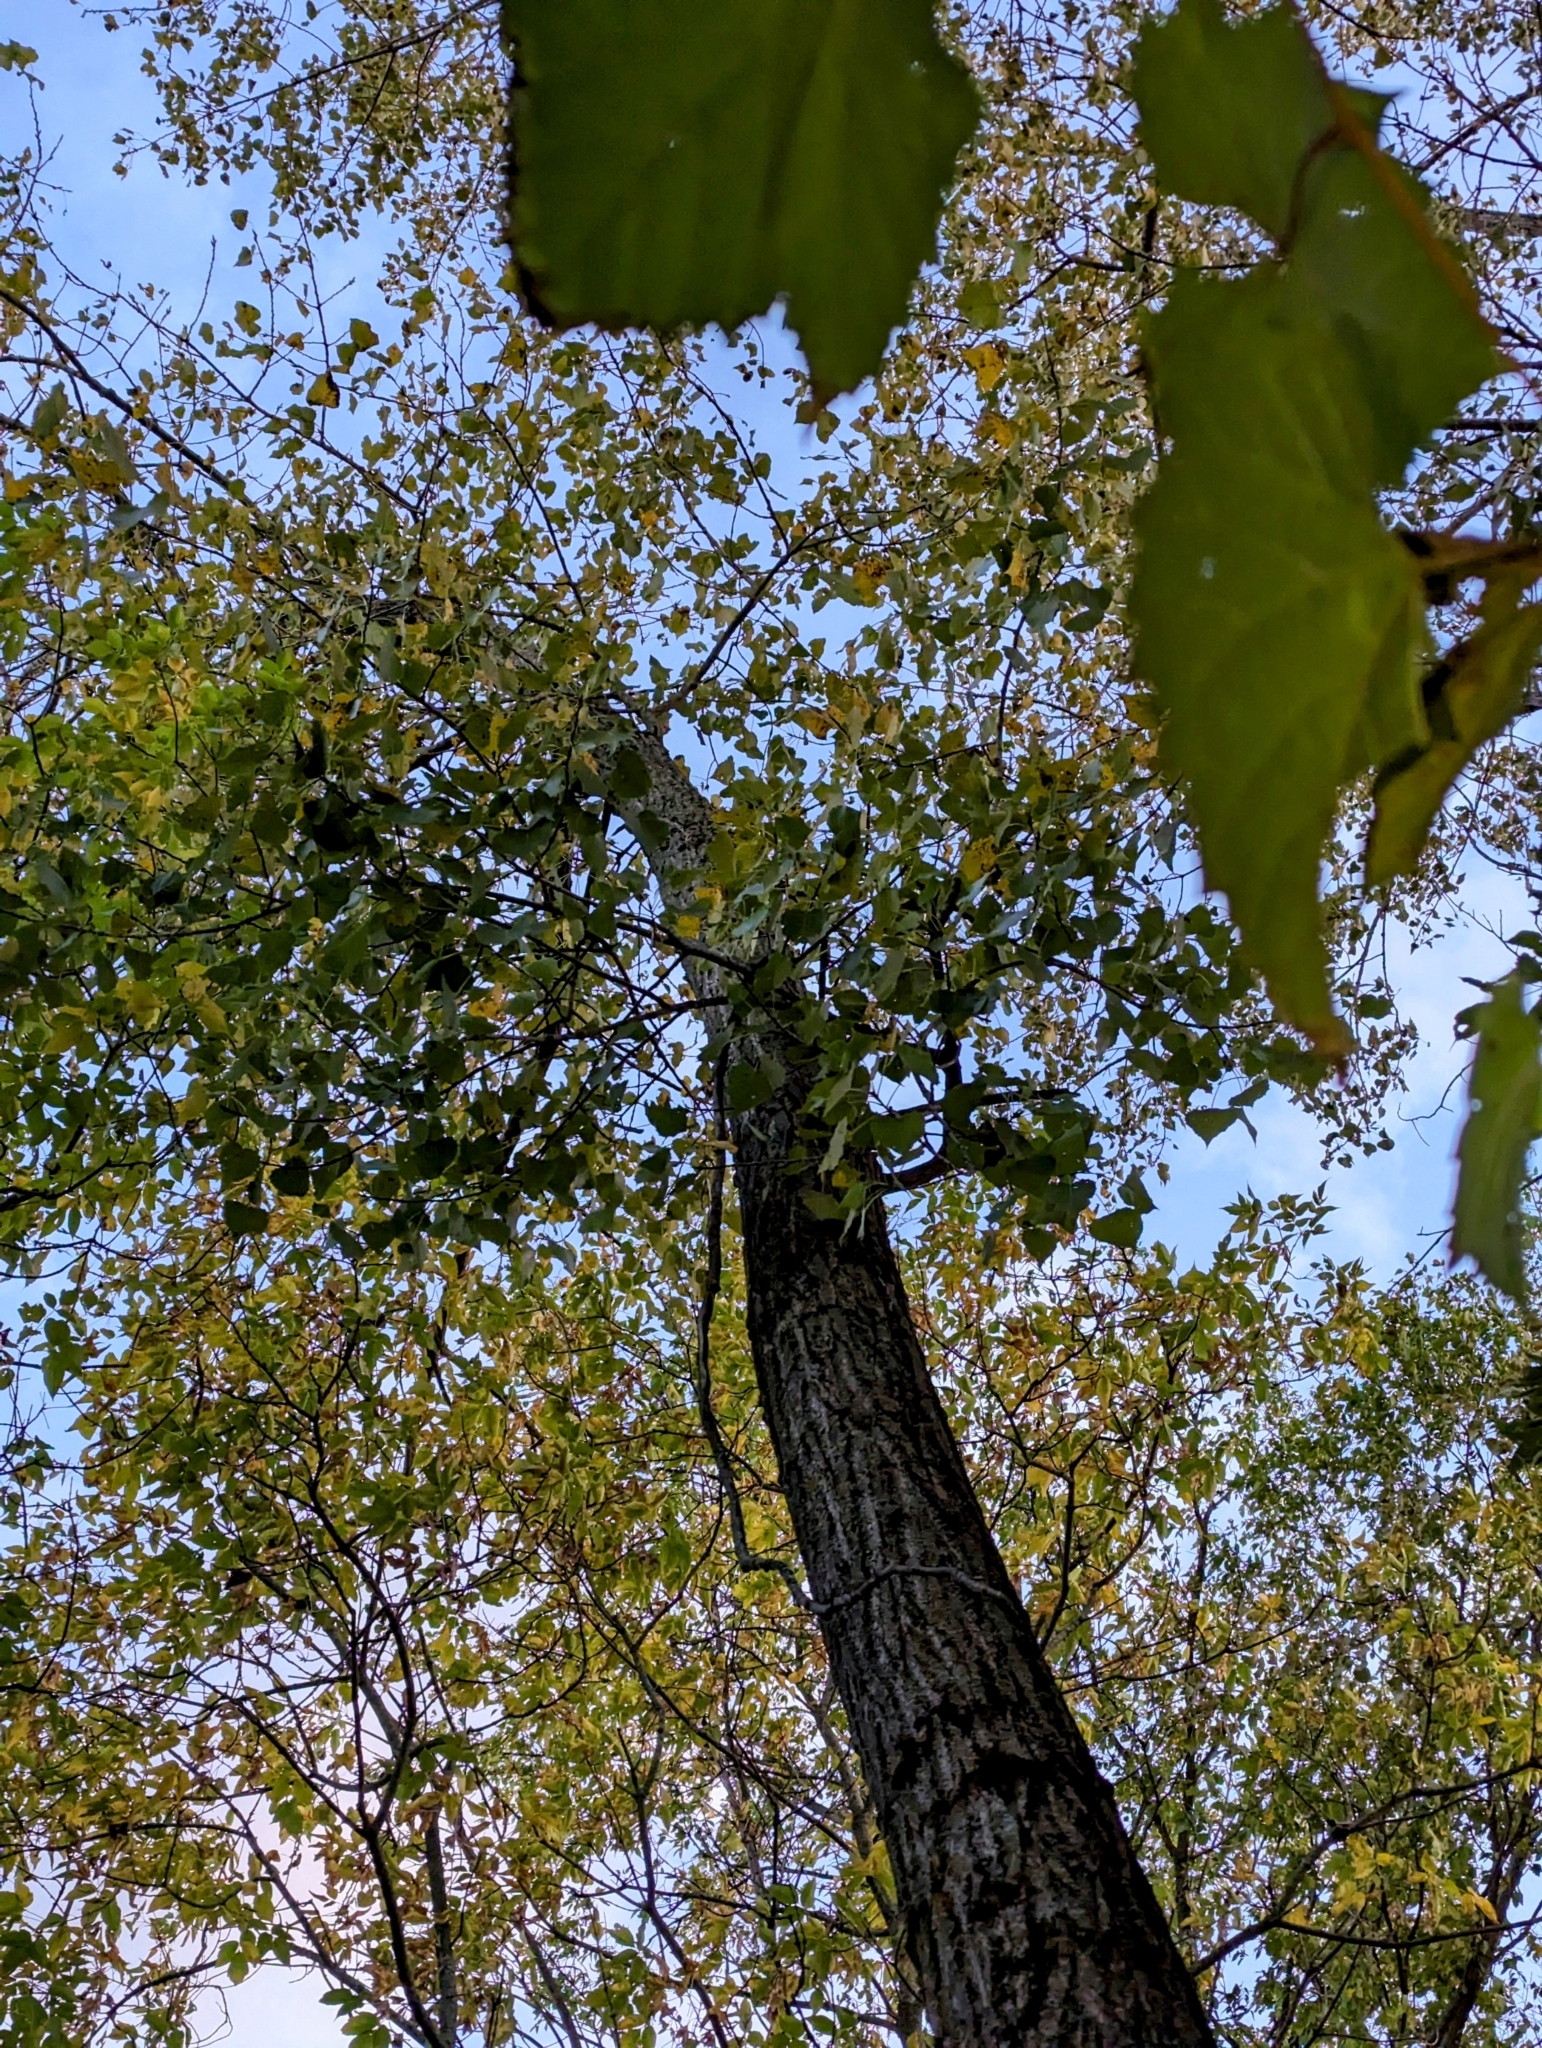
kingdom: Plantae
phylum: Tracheophyta
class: Magnoliopsida
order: Malpighiales
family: Salicaceae
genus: Populus
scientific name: Populus deltoides
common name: Eastern cottonwood
